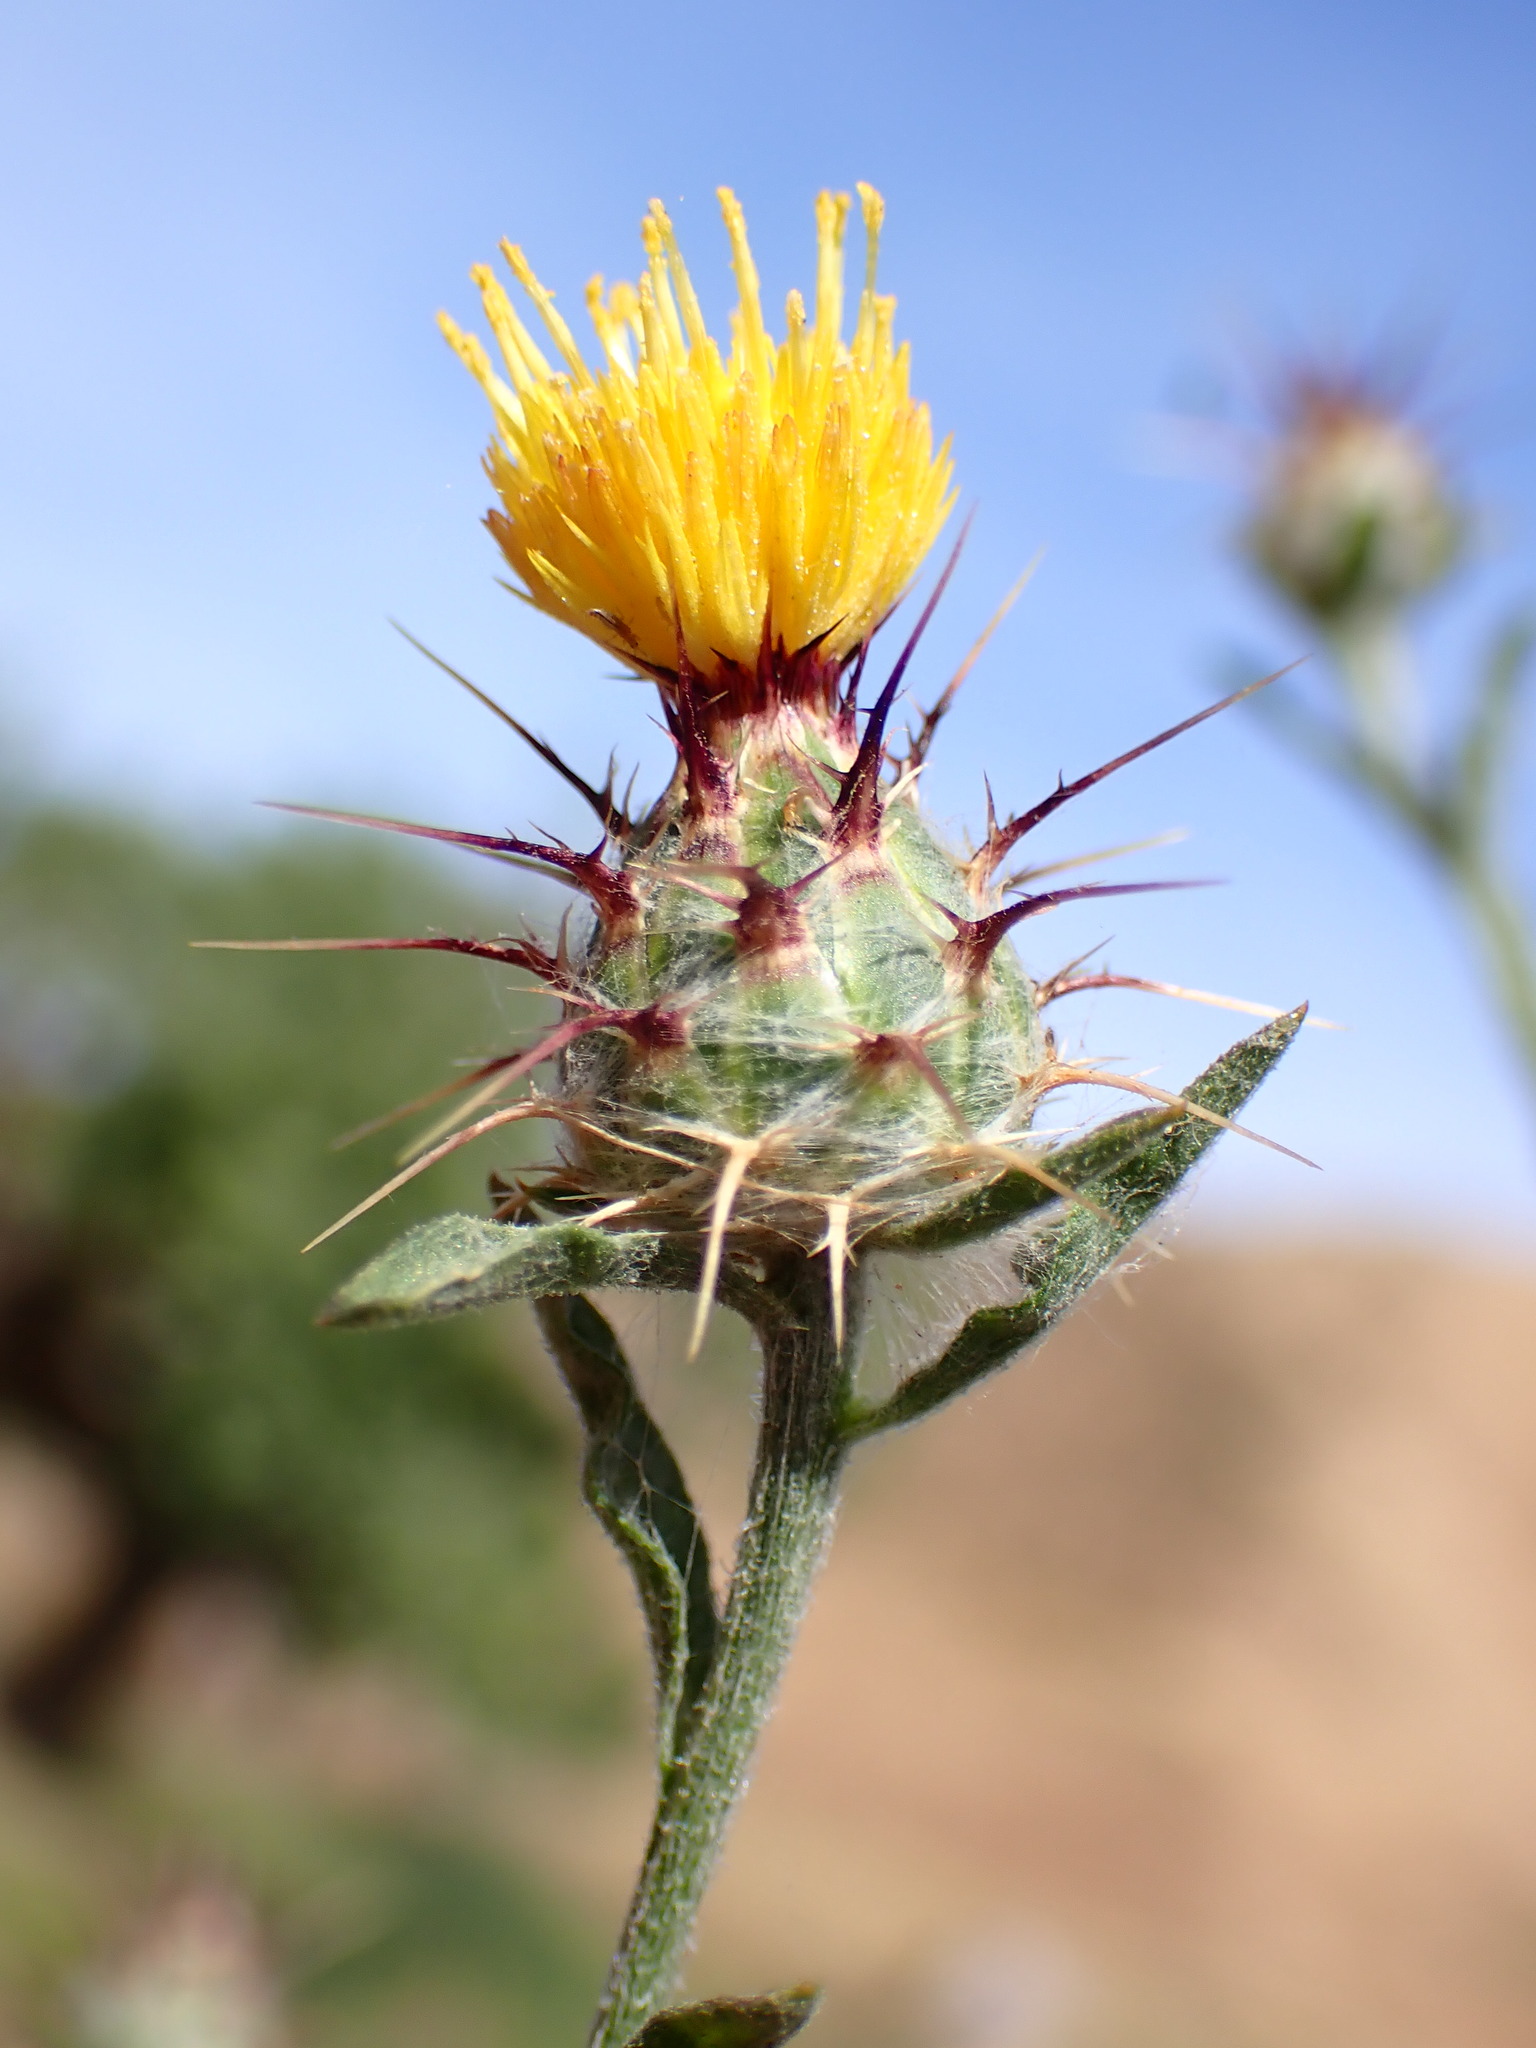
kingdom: Plantae
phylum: Tracheophyta
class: Magnoliopsida
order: Asterales
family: Asteraceae
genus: Centaurea
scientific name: Centaurea melitensis
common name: Maltese star-thistle
